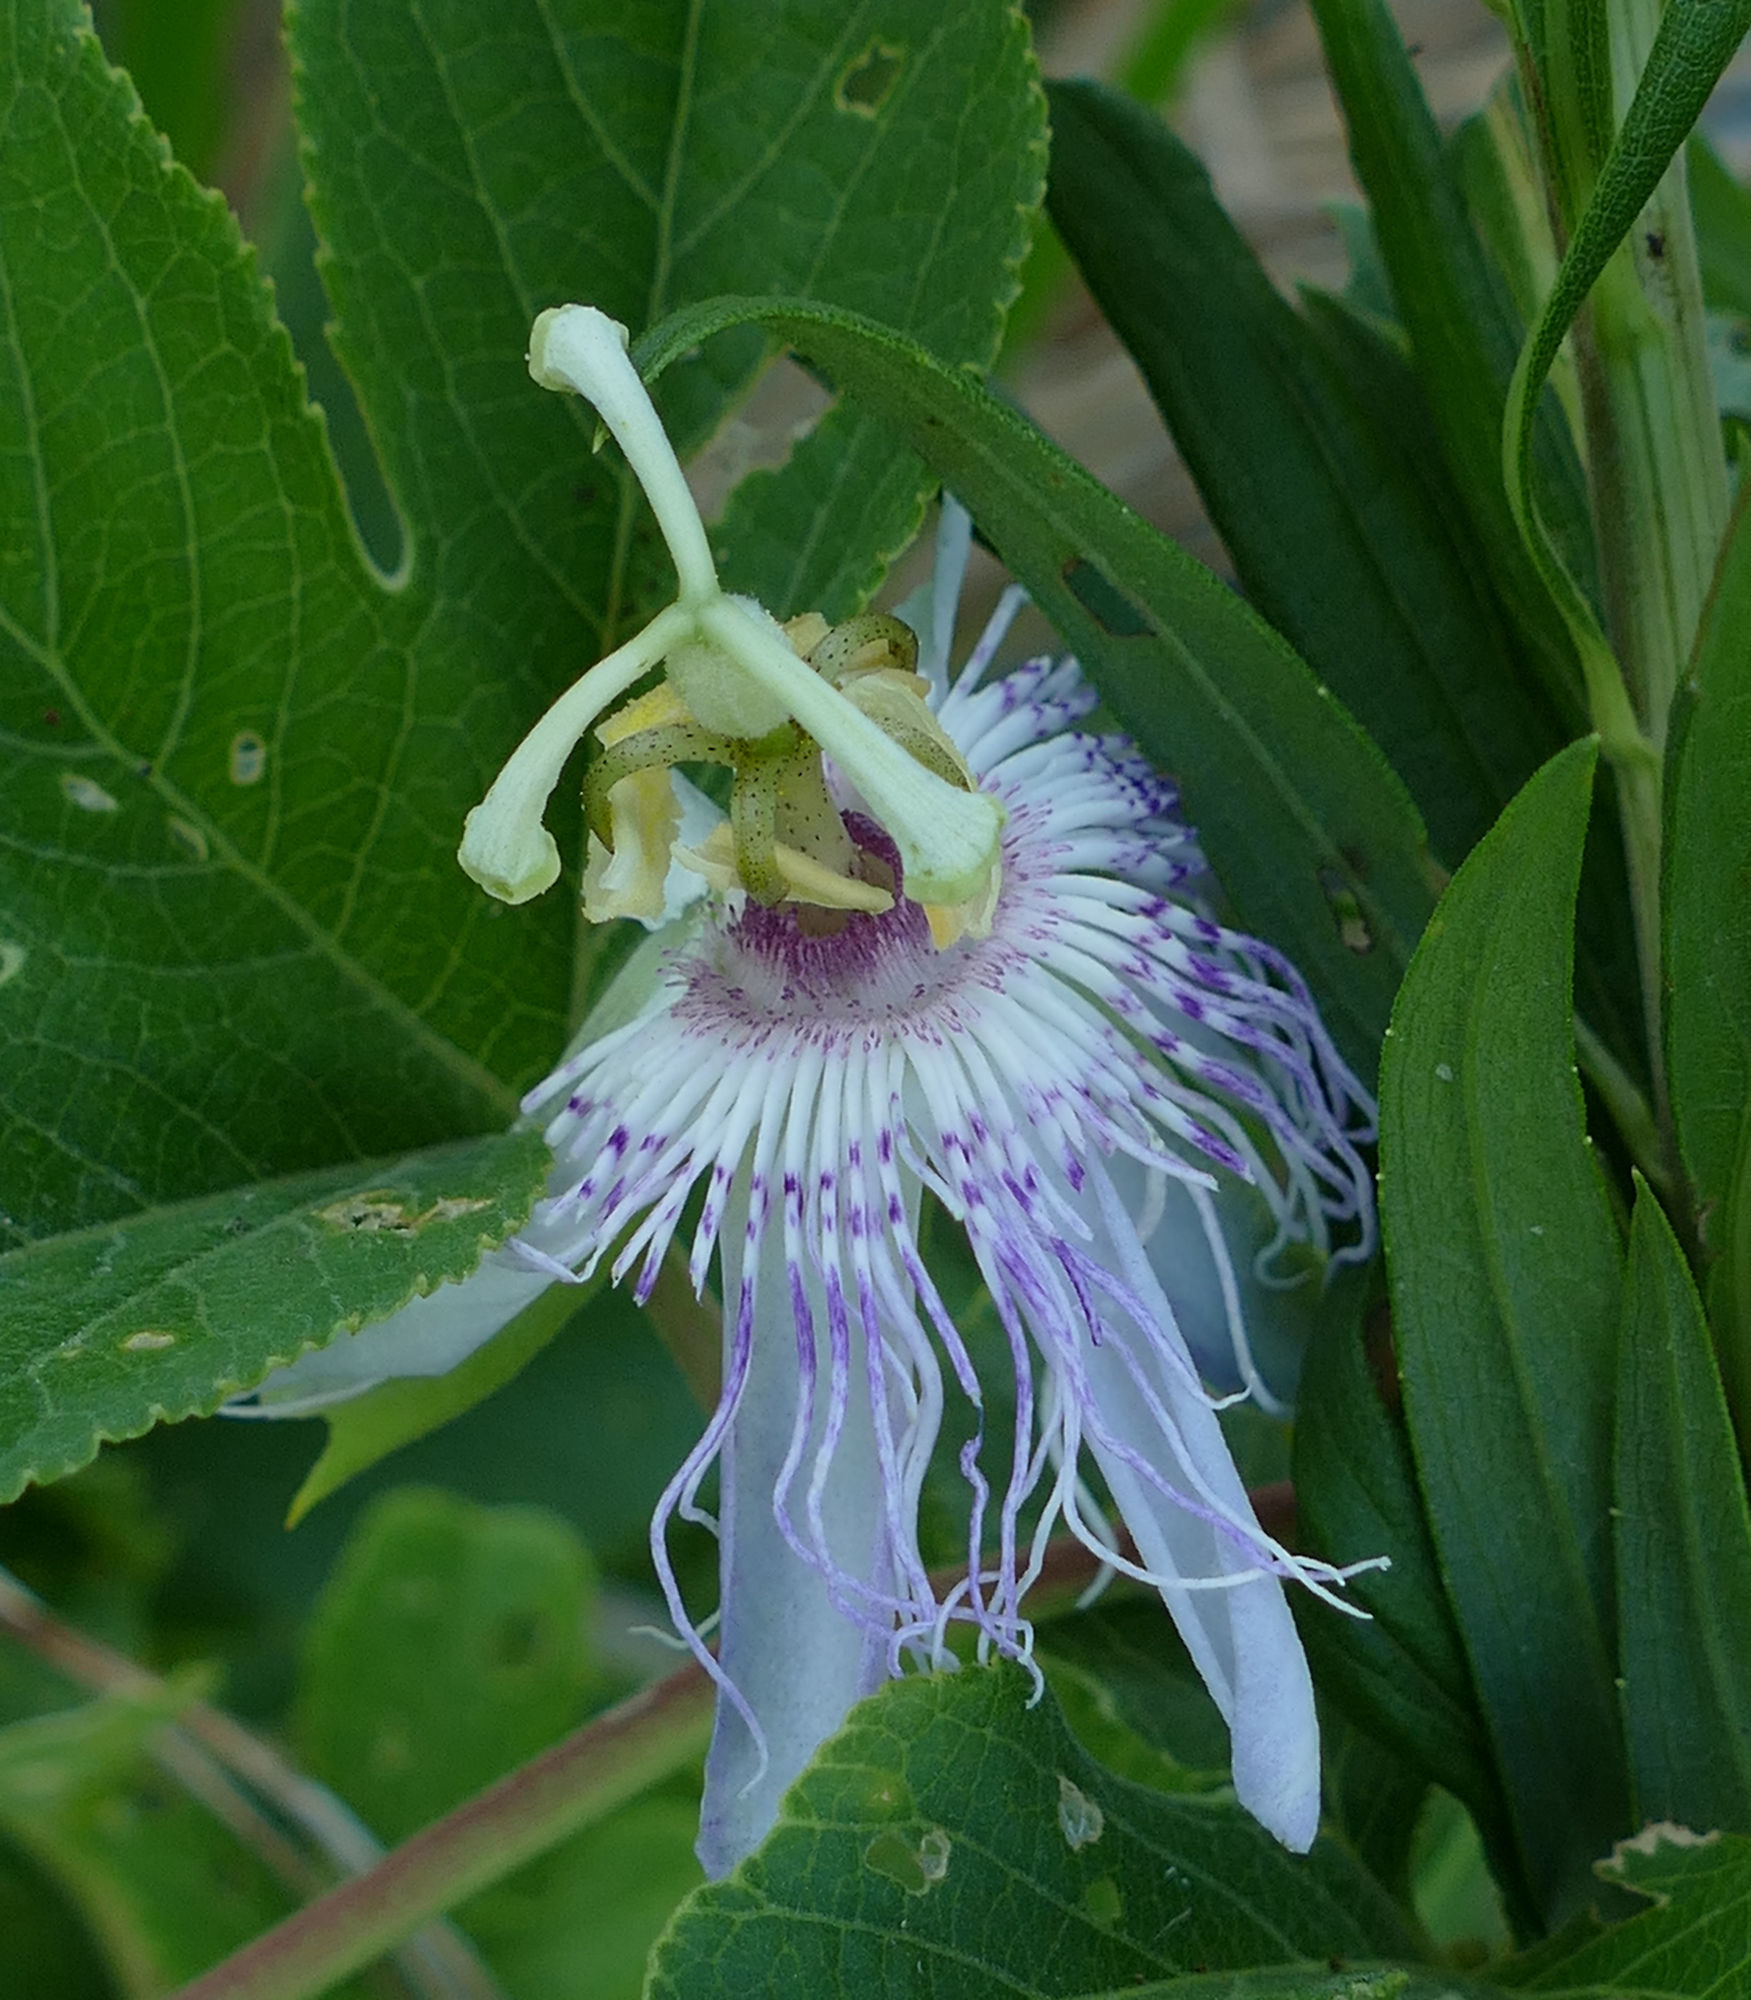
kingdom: Plantae
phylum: Tracheophyta
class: Magnoliopsida
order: Malpighiales
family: Passifloraceae
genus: Passiflora
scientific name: Passiflora incarnata
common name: Apricot-vine
